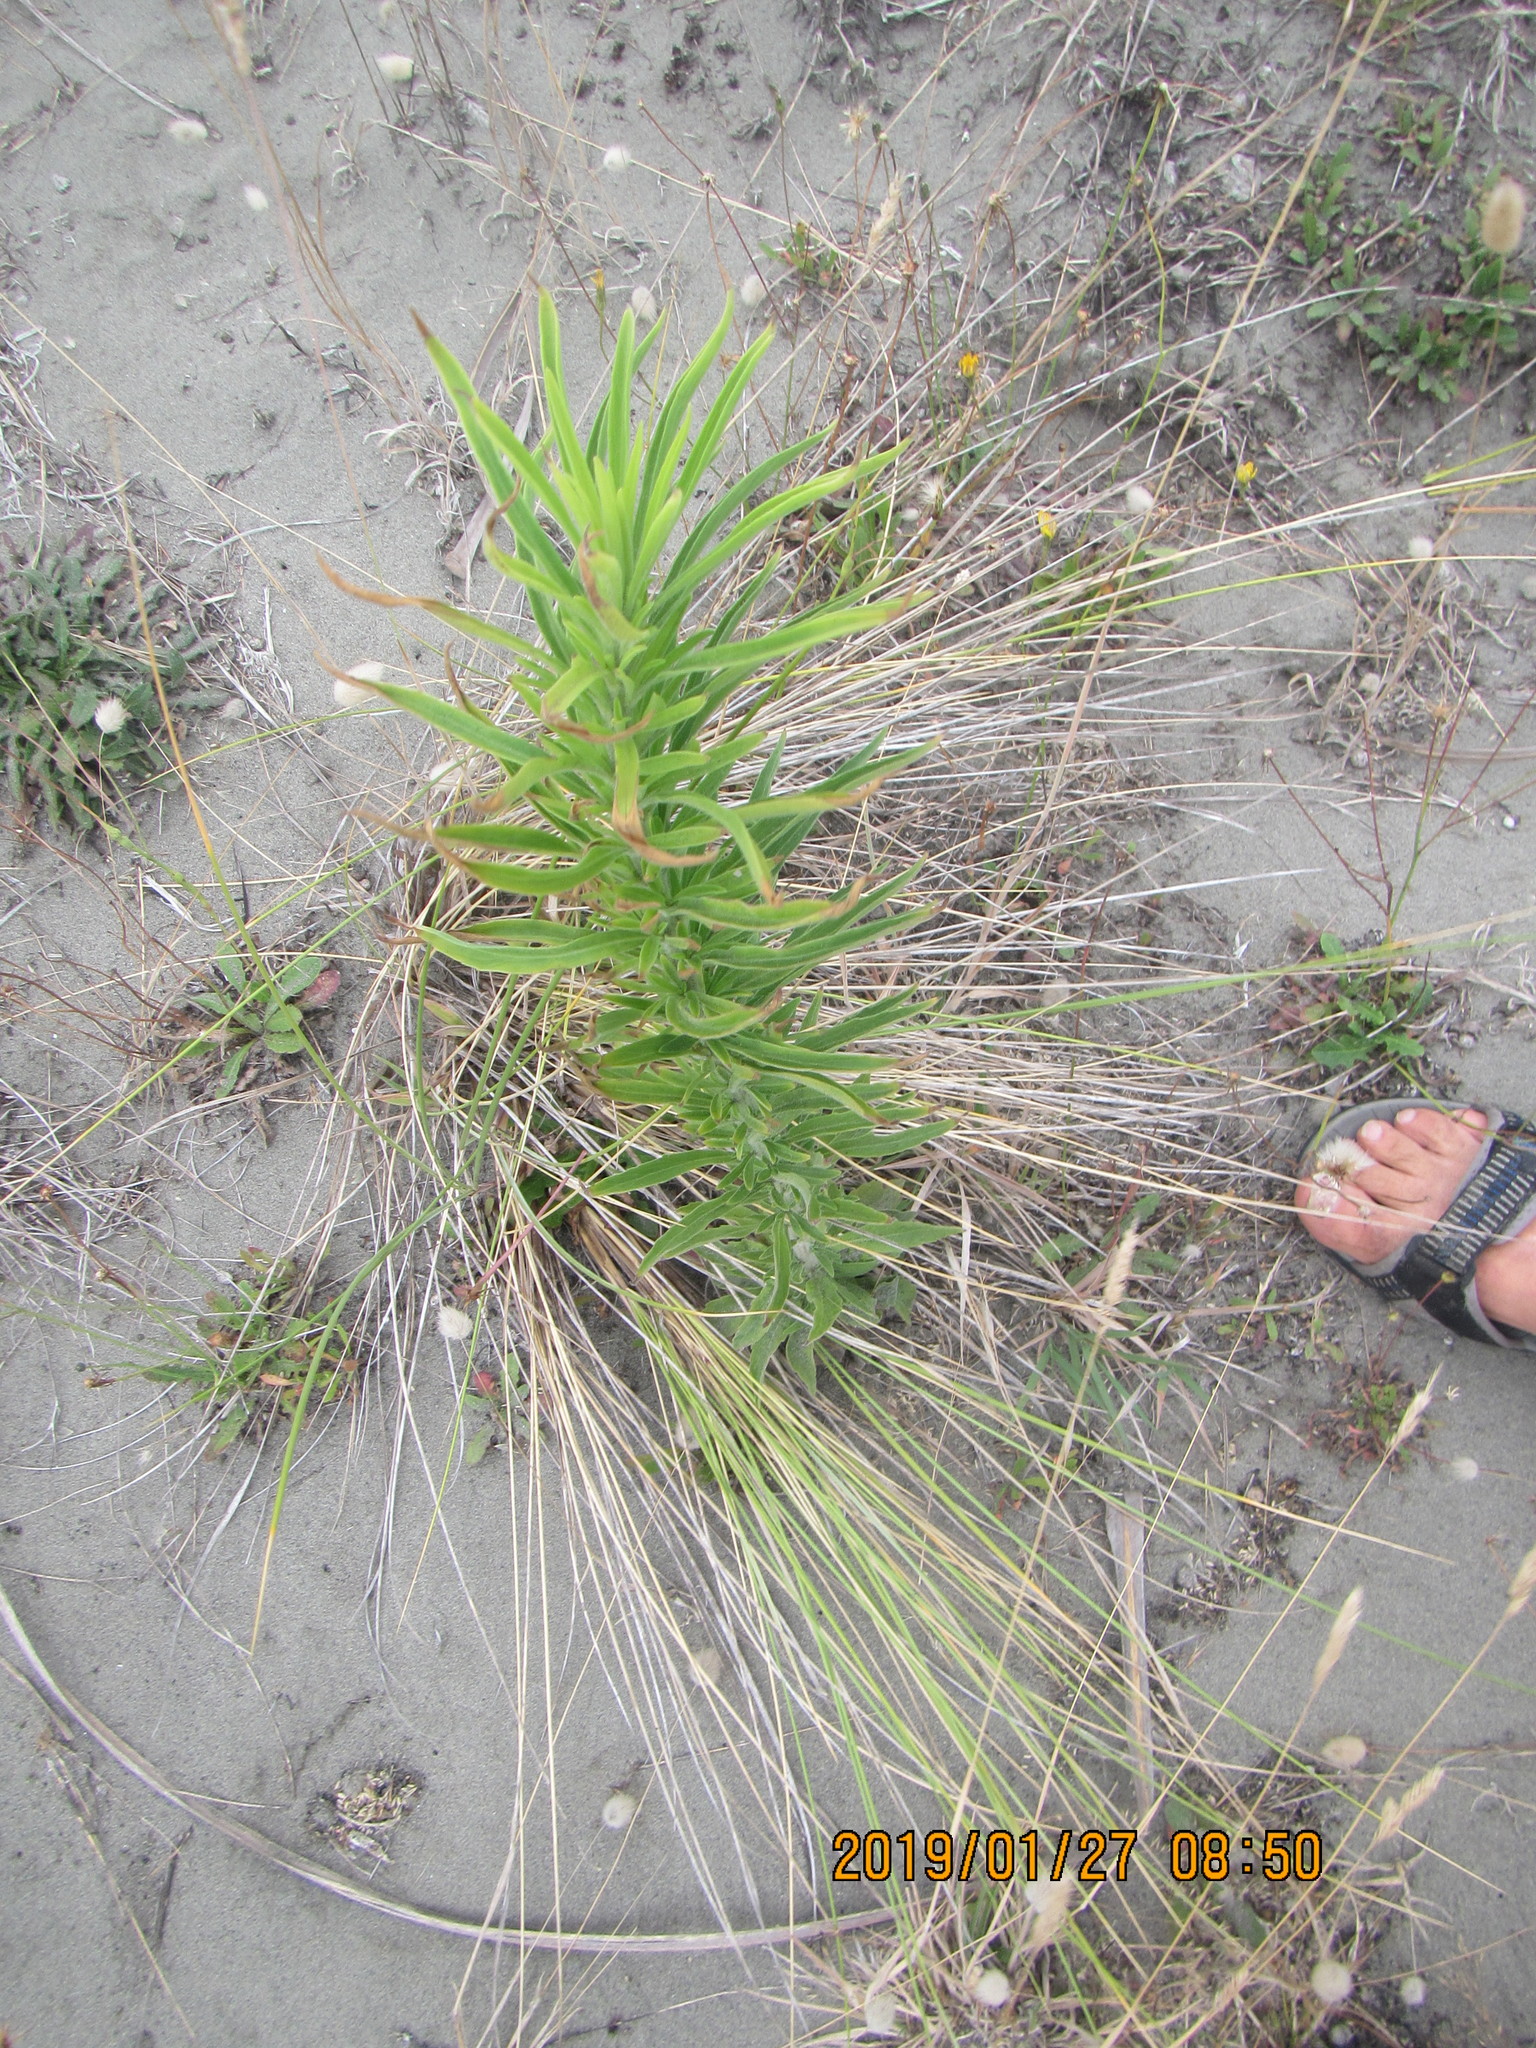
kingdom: Plantae
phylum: Tracheophyta
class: Magnoliopsida
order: Asterales
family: Asteraceae
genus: Erigeron
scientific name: Erigeron sumatrensis
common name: Daisy
